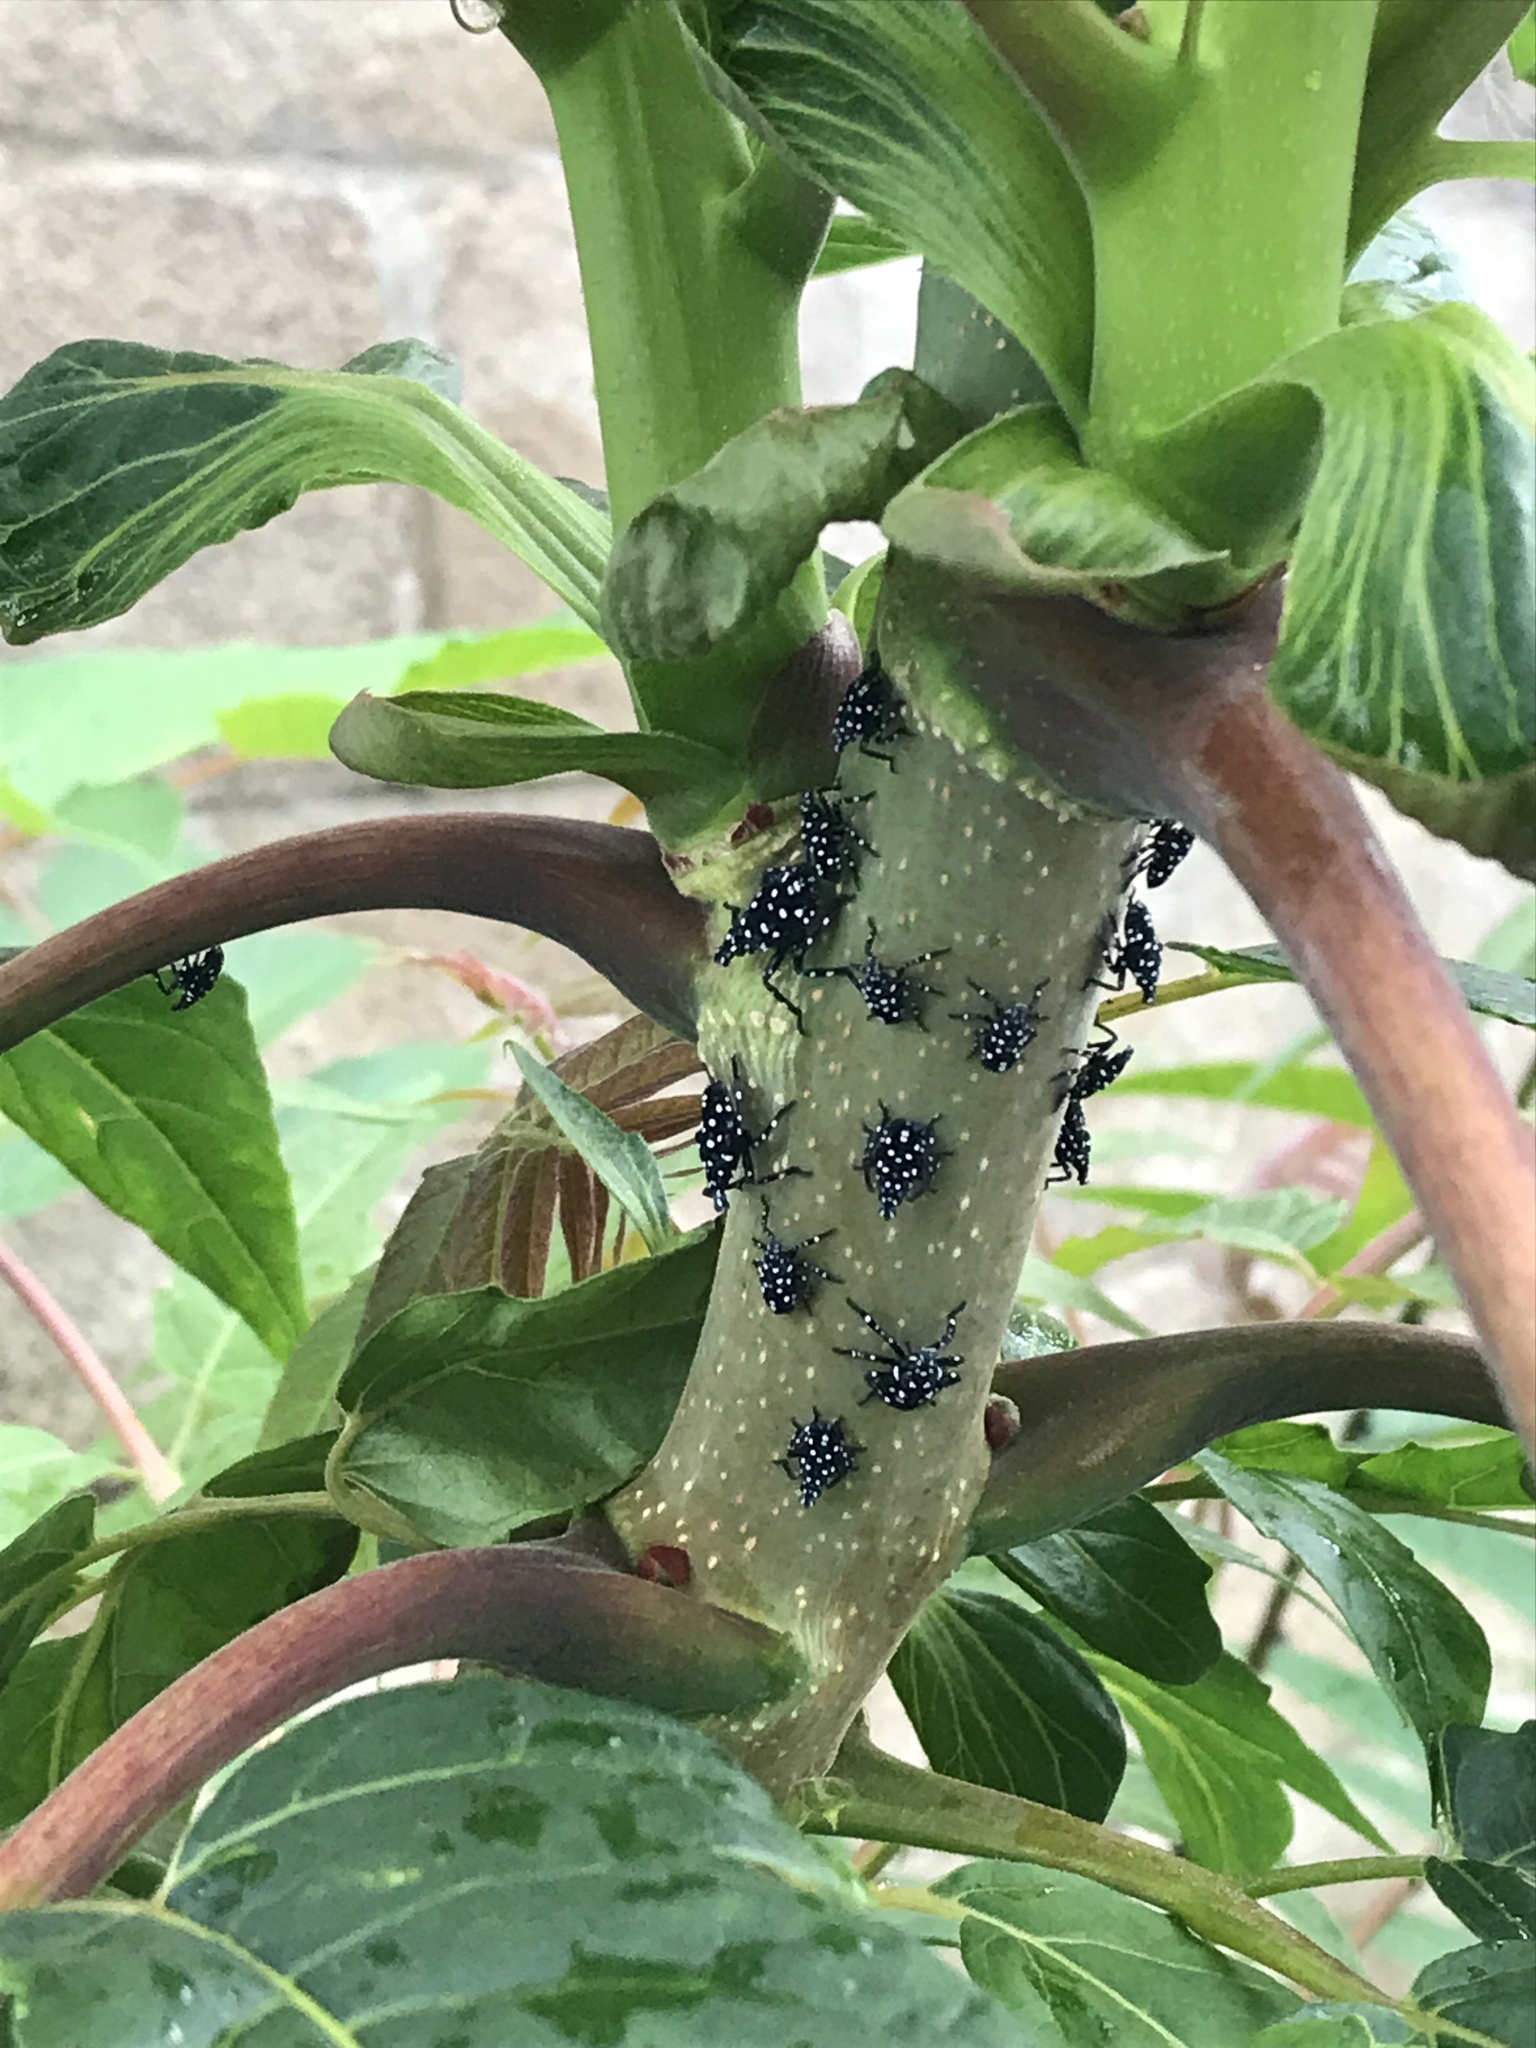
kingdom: Animalia
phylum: Arthropoda
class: Insecta
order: Hemiptera
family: Fulgoridae
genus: Lycorma
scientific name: Lycorma delicatula
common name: Spotted lanternfly
